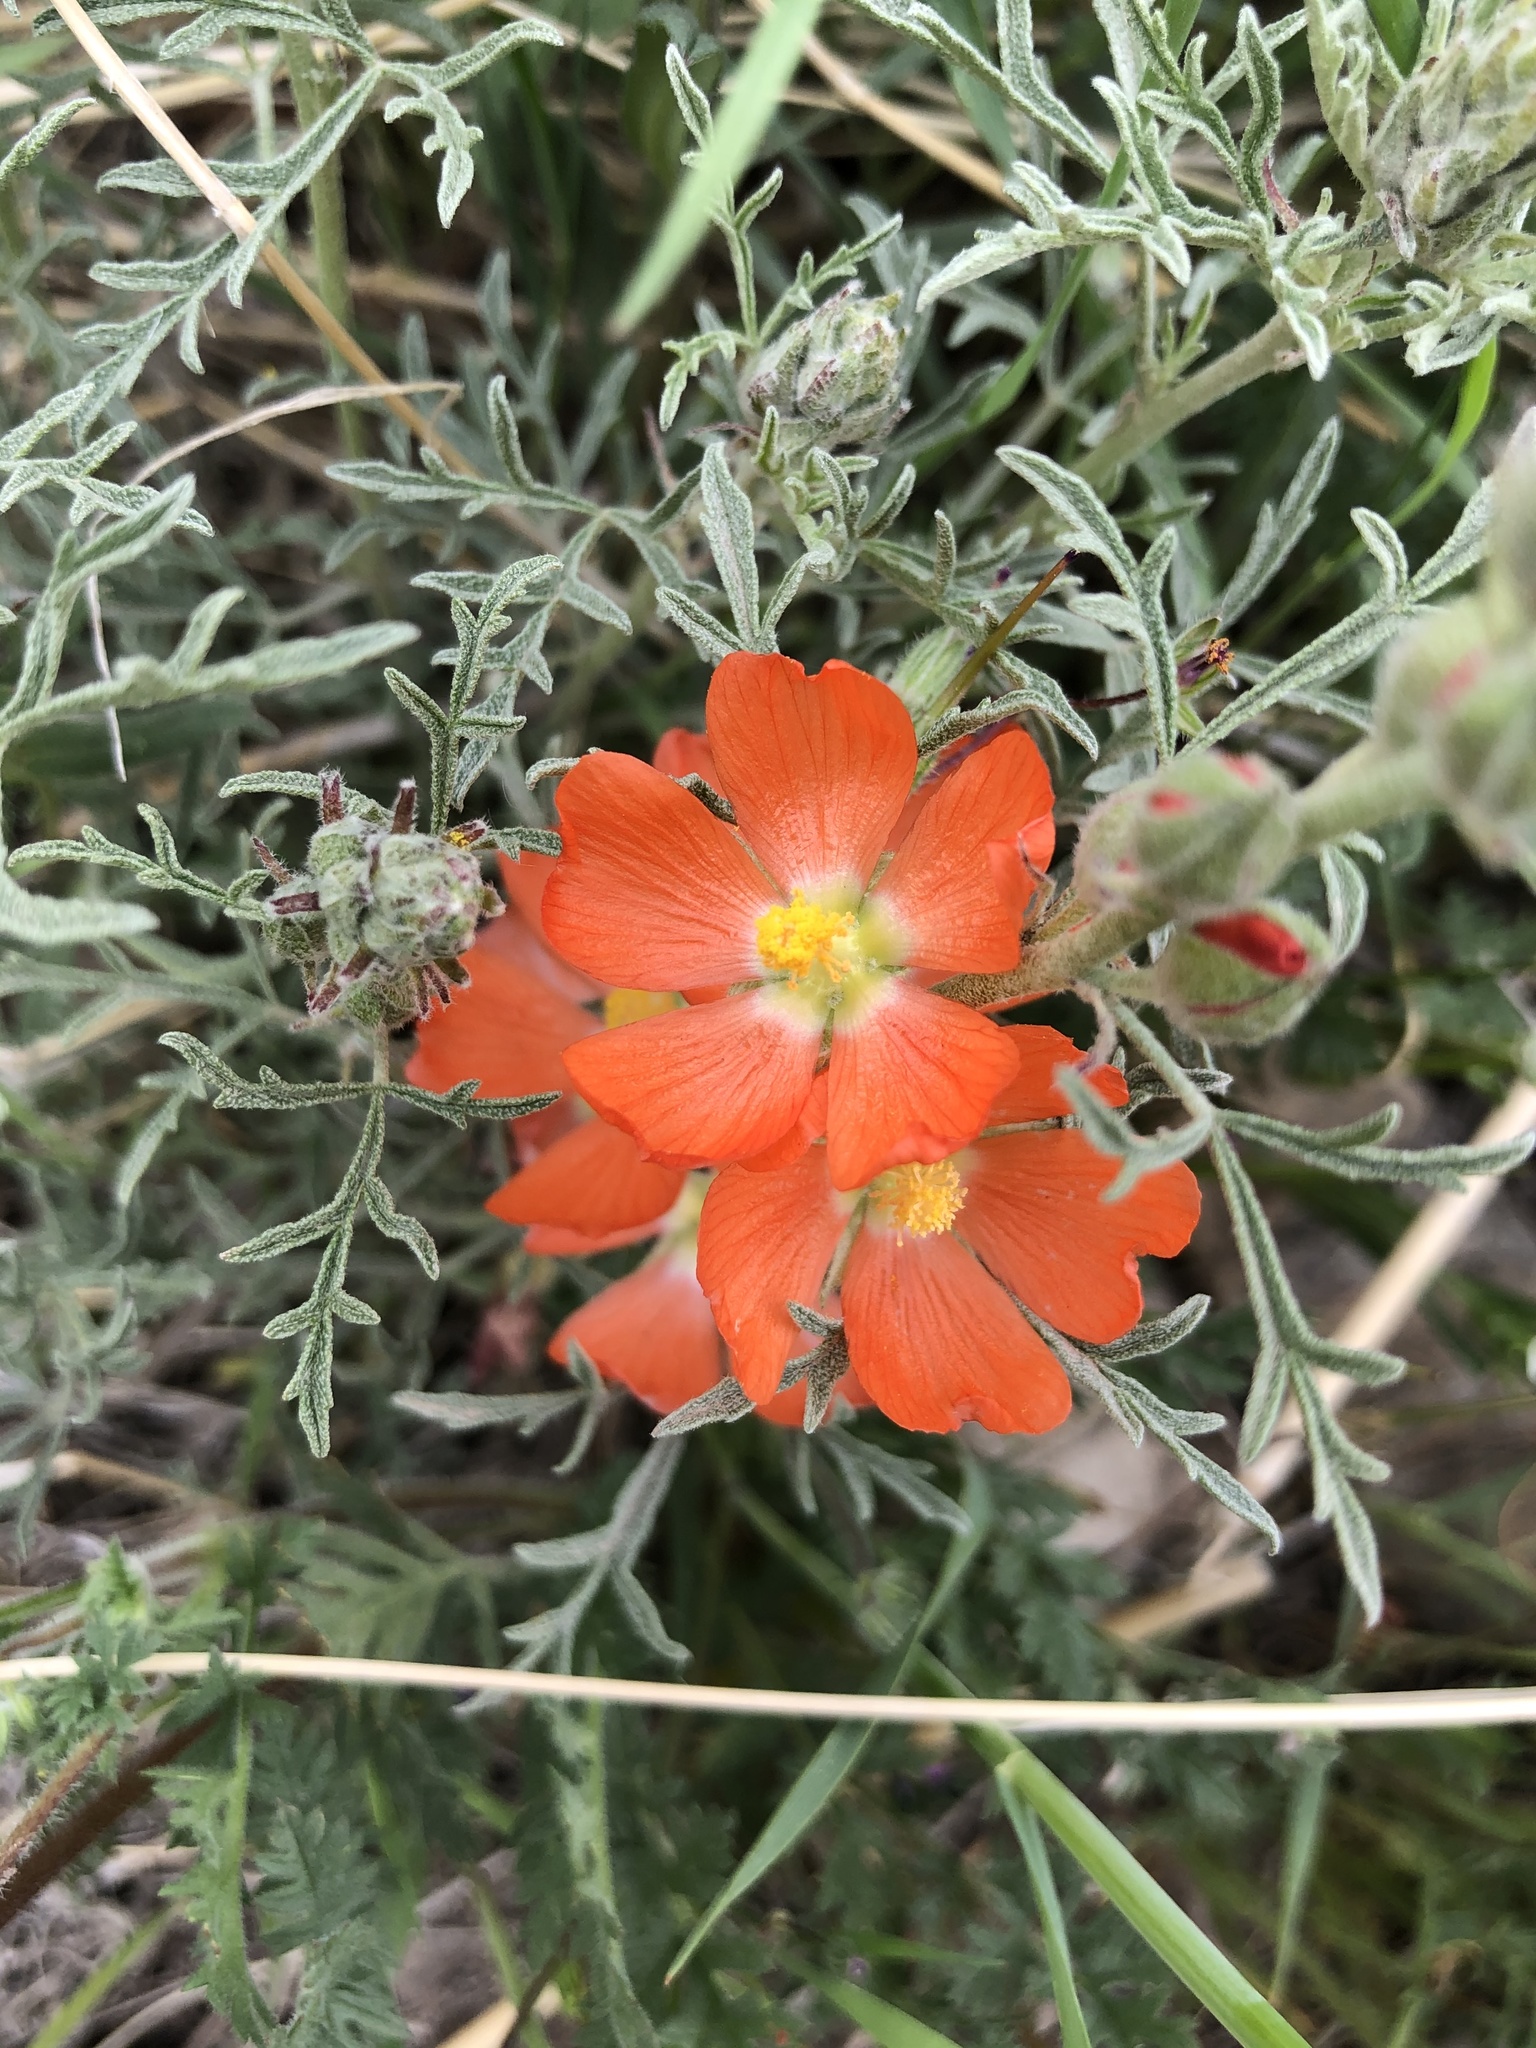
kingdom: Plantae
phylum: Tracheophyta
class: Magnoliopsida
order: Malvales
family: Malvaceae
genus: Sphaeralcea
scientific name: Sphaeralcea coccinea
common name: Moss-rose
